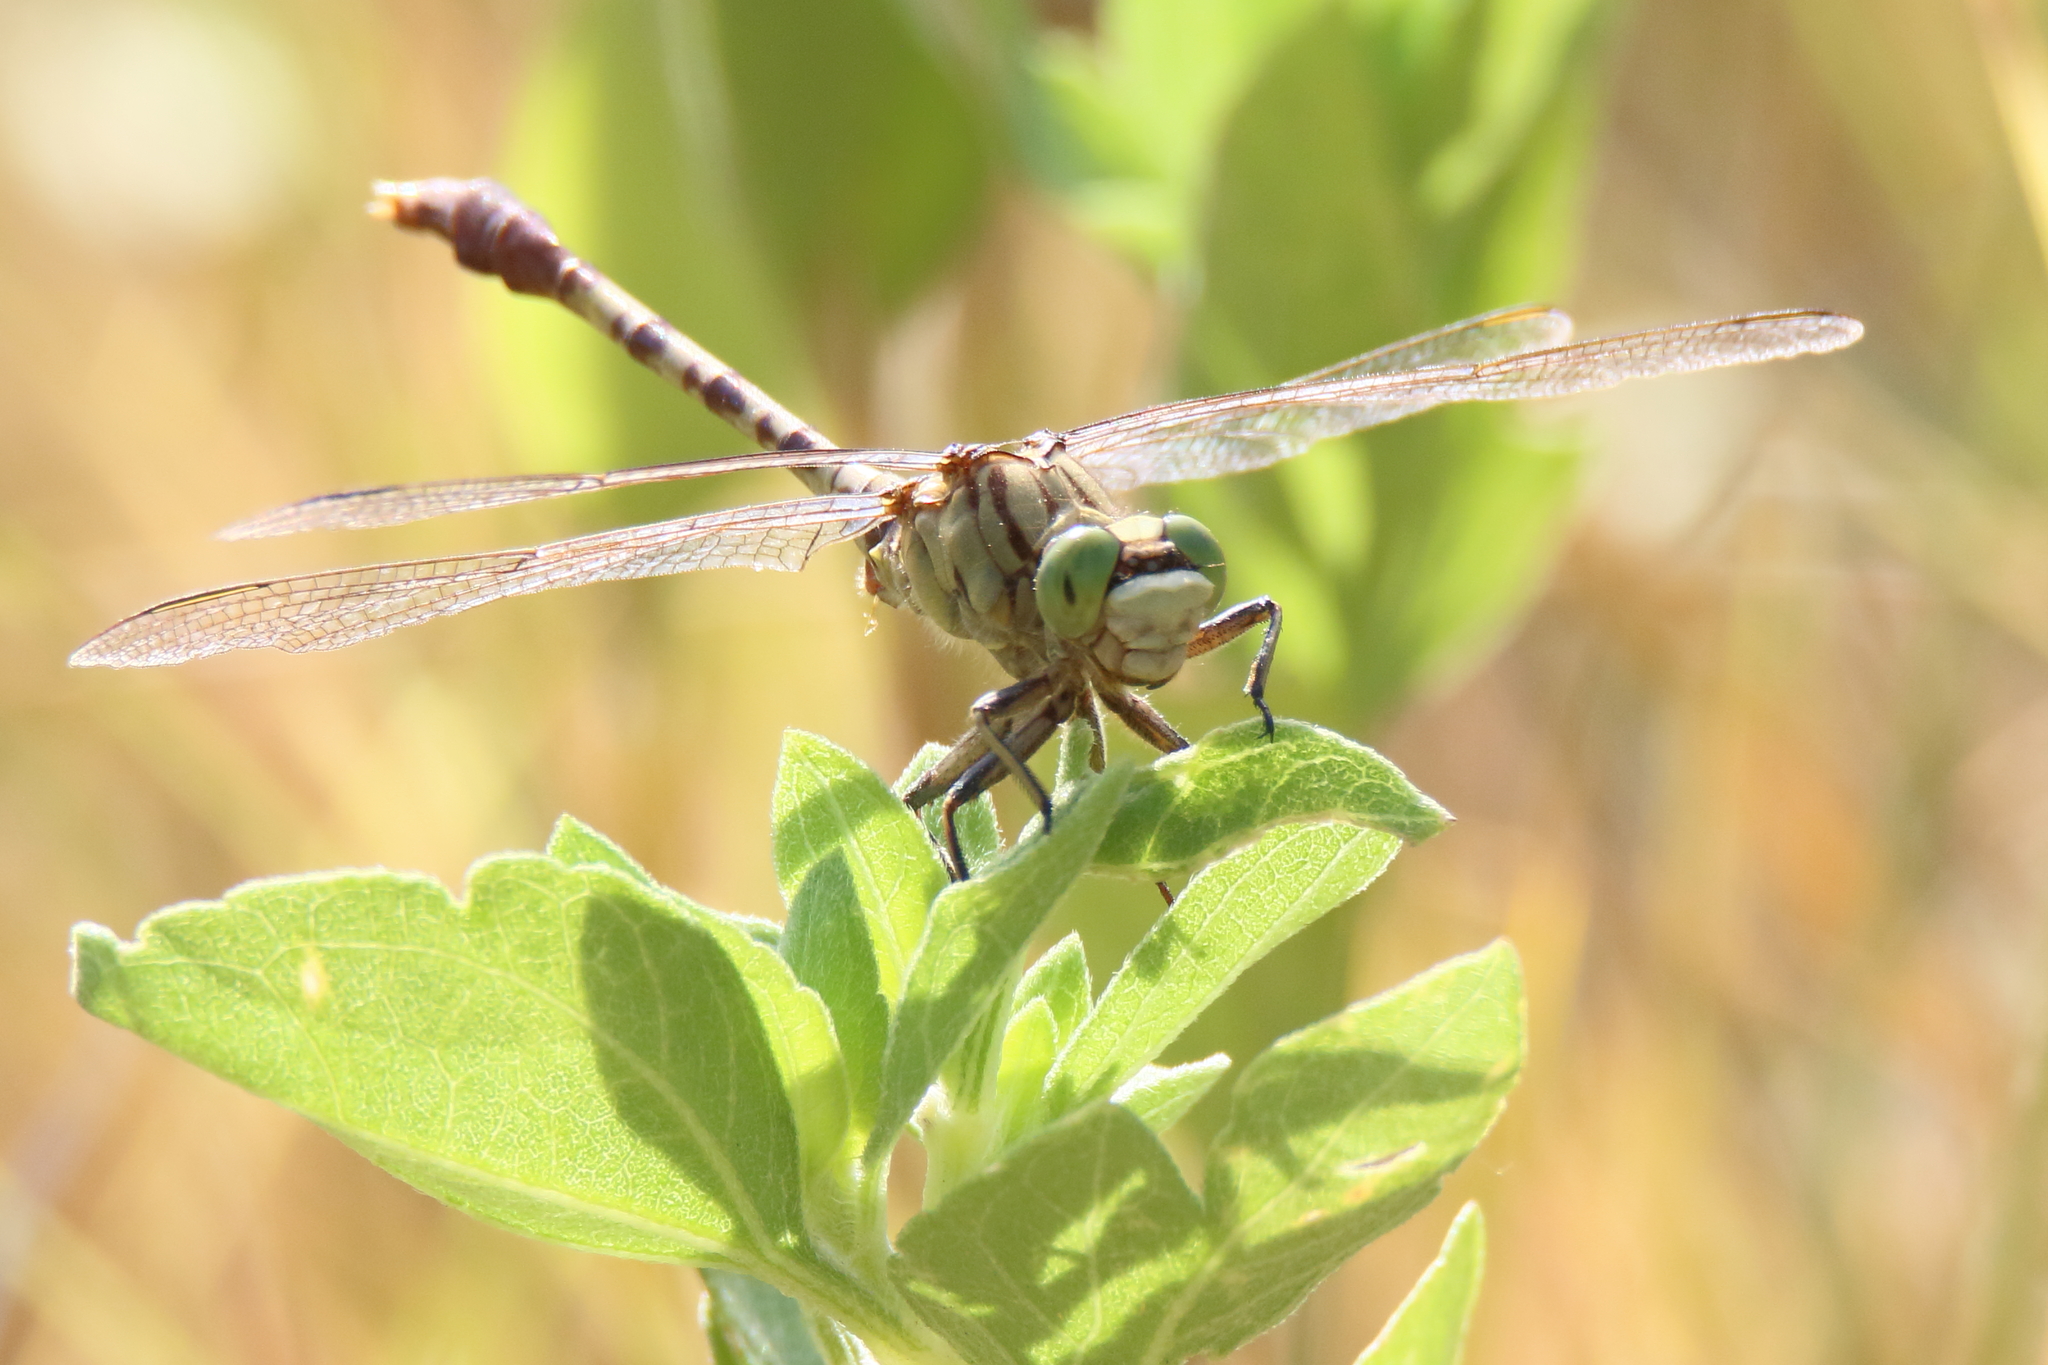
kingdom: Animalia
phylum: Arthropoda
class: Insecta
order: Odonata
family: Gomphidae
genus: Arigomphus
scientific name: Arigomphus submedianus
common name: Jade clubtail
